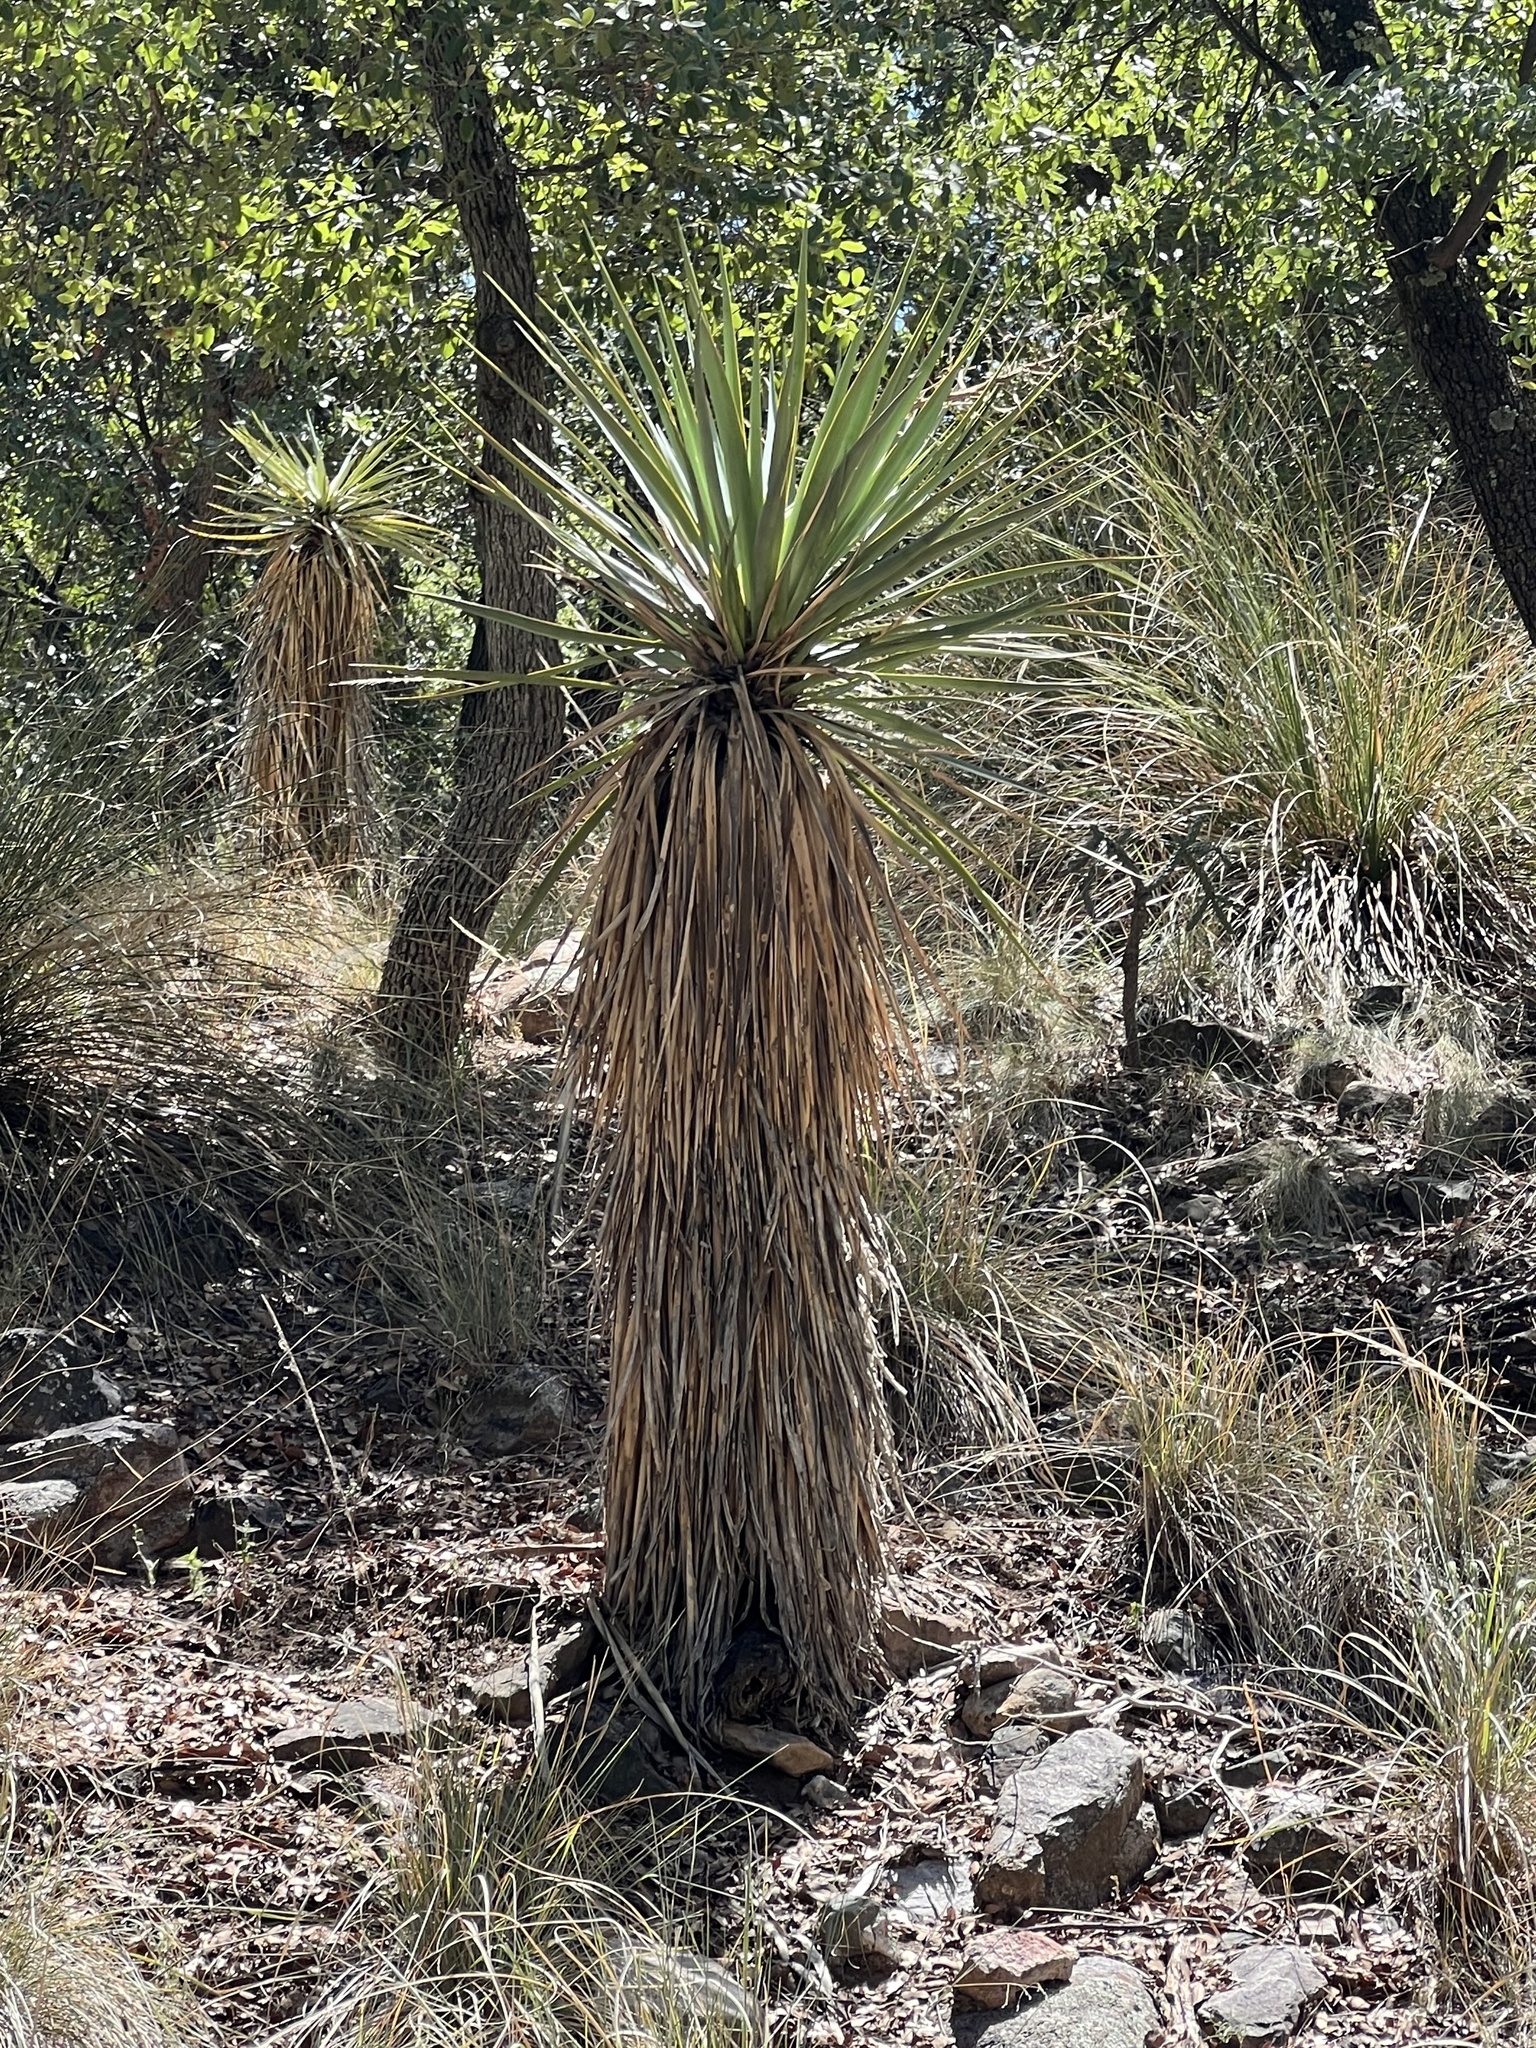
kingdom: Plantae
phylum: Tracheophyta
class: Liliopsida
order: Asparagales
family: Asparagaceae
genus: Yucca
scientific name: Yucca schottii
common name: Hoary yucca
